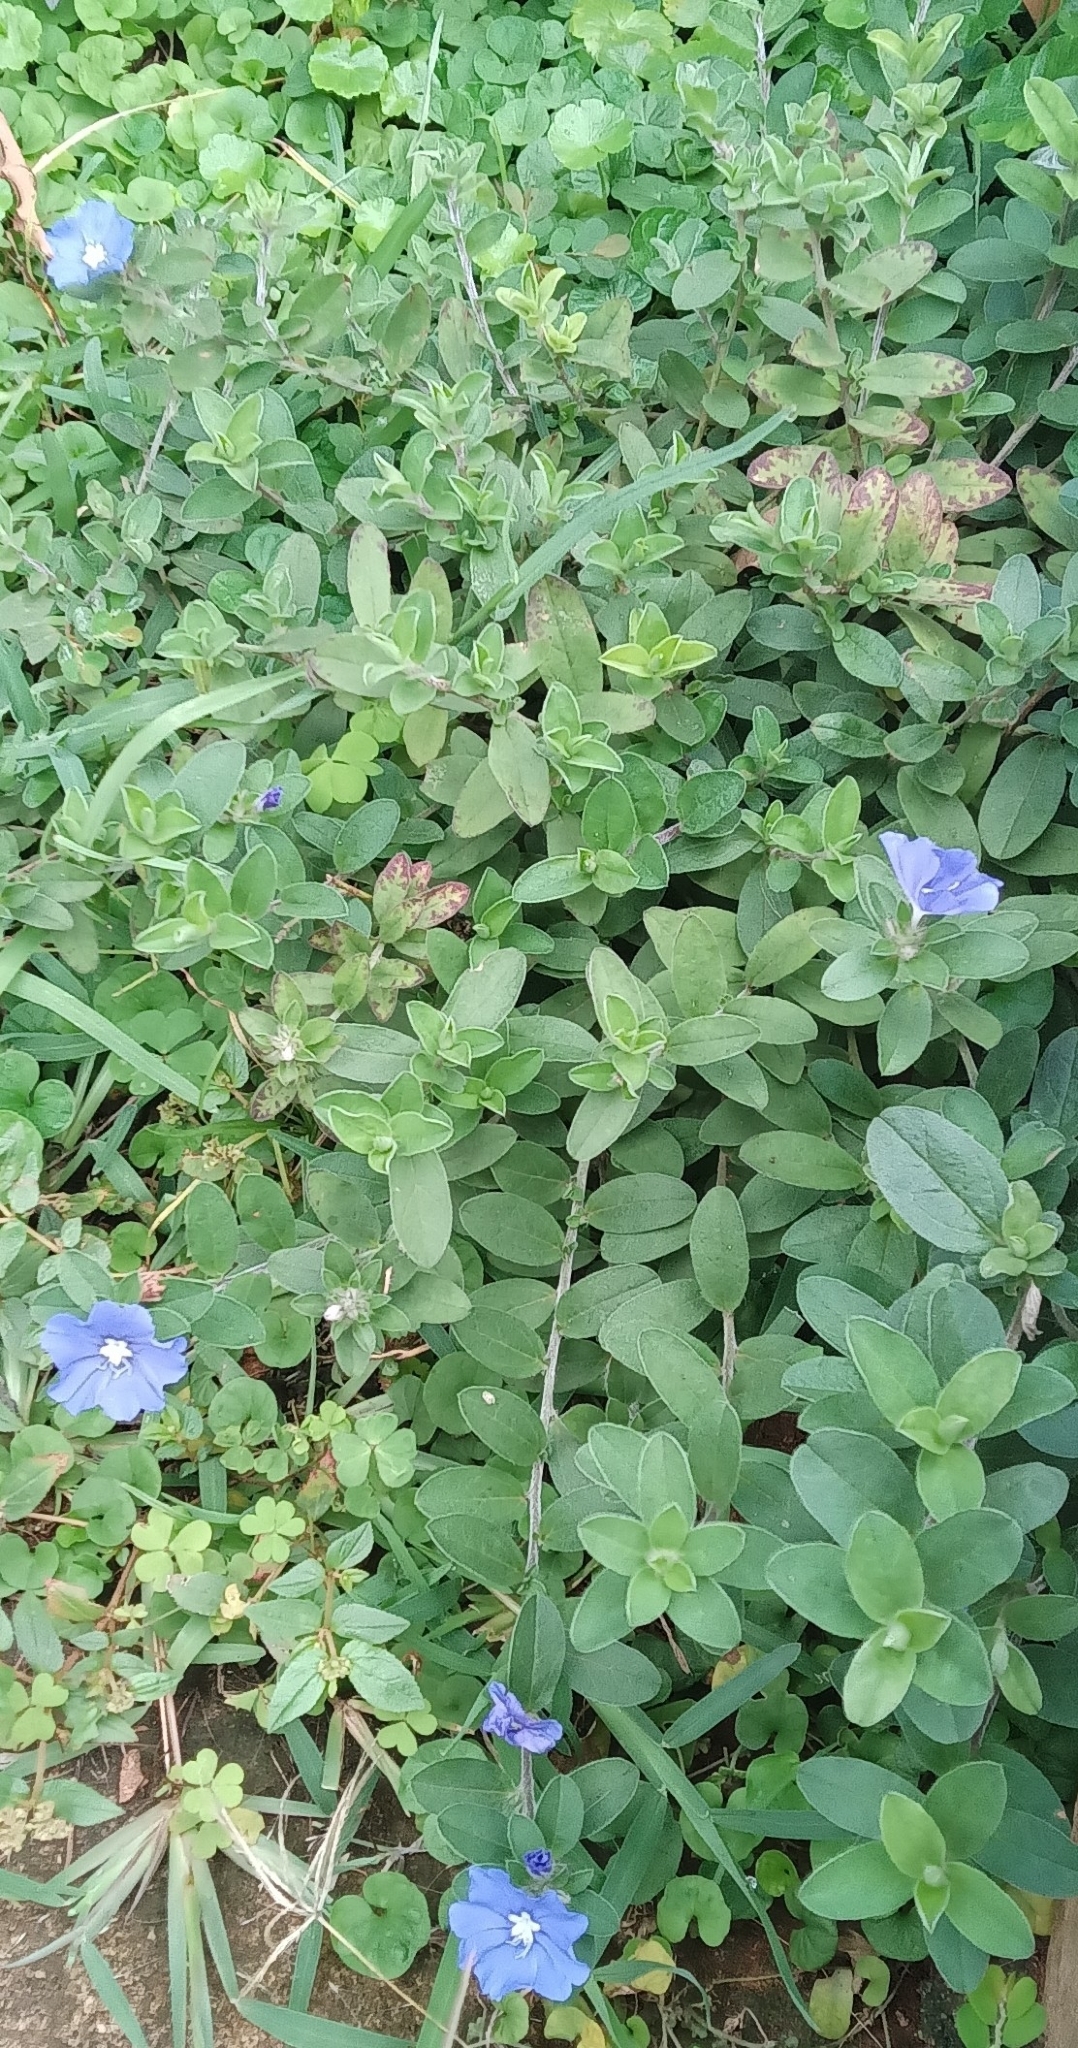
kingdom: Plantae
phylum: Tracheophyta
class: Magnoliopsida
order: Solanales
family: Convolvulaceae
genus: Evolvulus
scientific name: Evolvulus glomeratus
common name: Brazilian dwarf morning-glory
